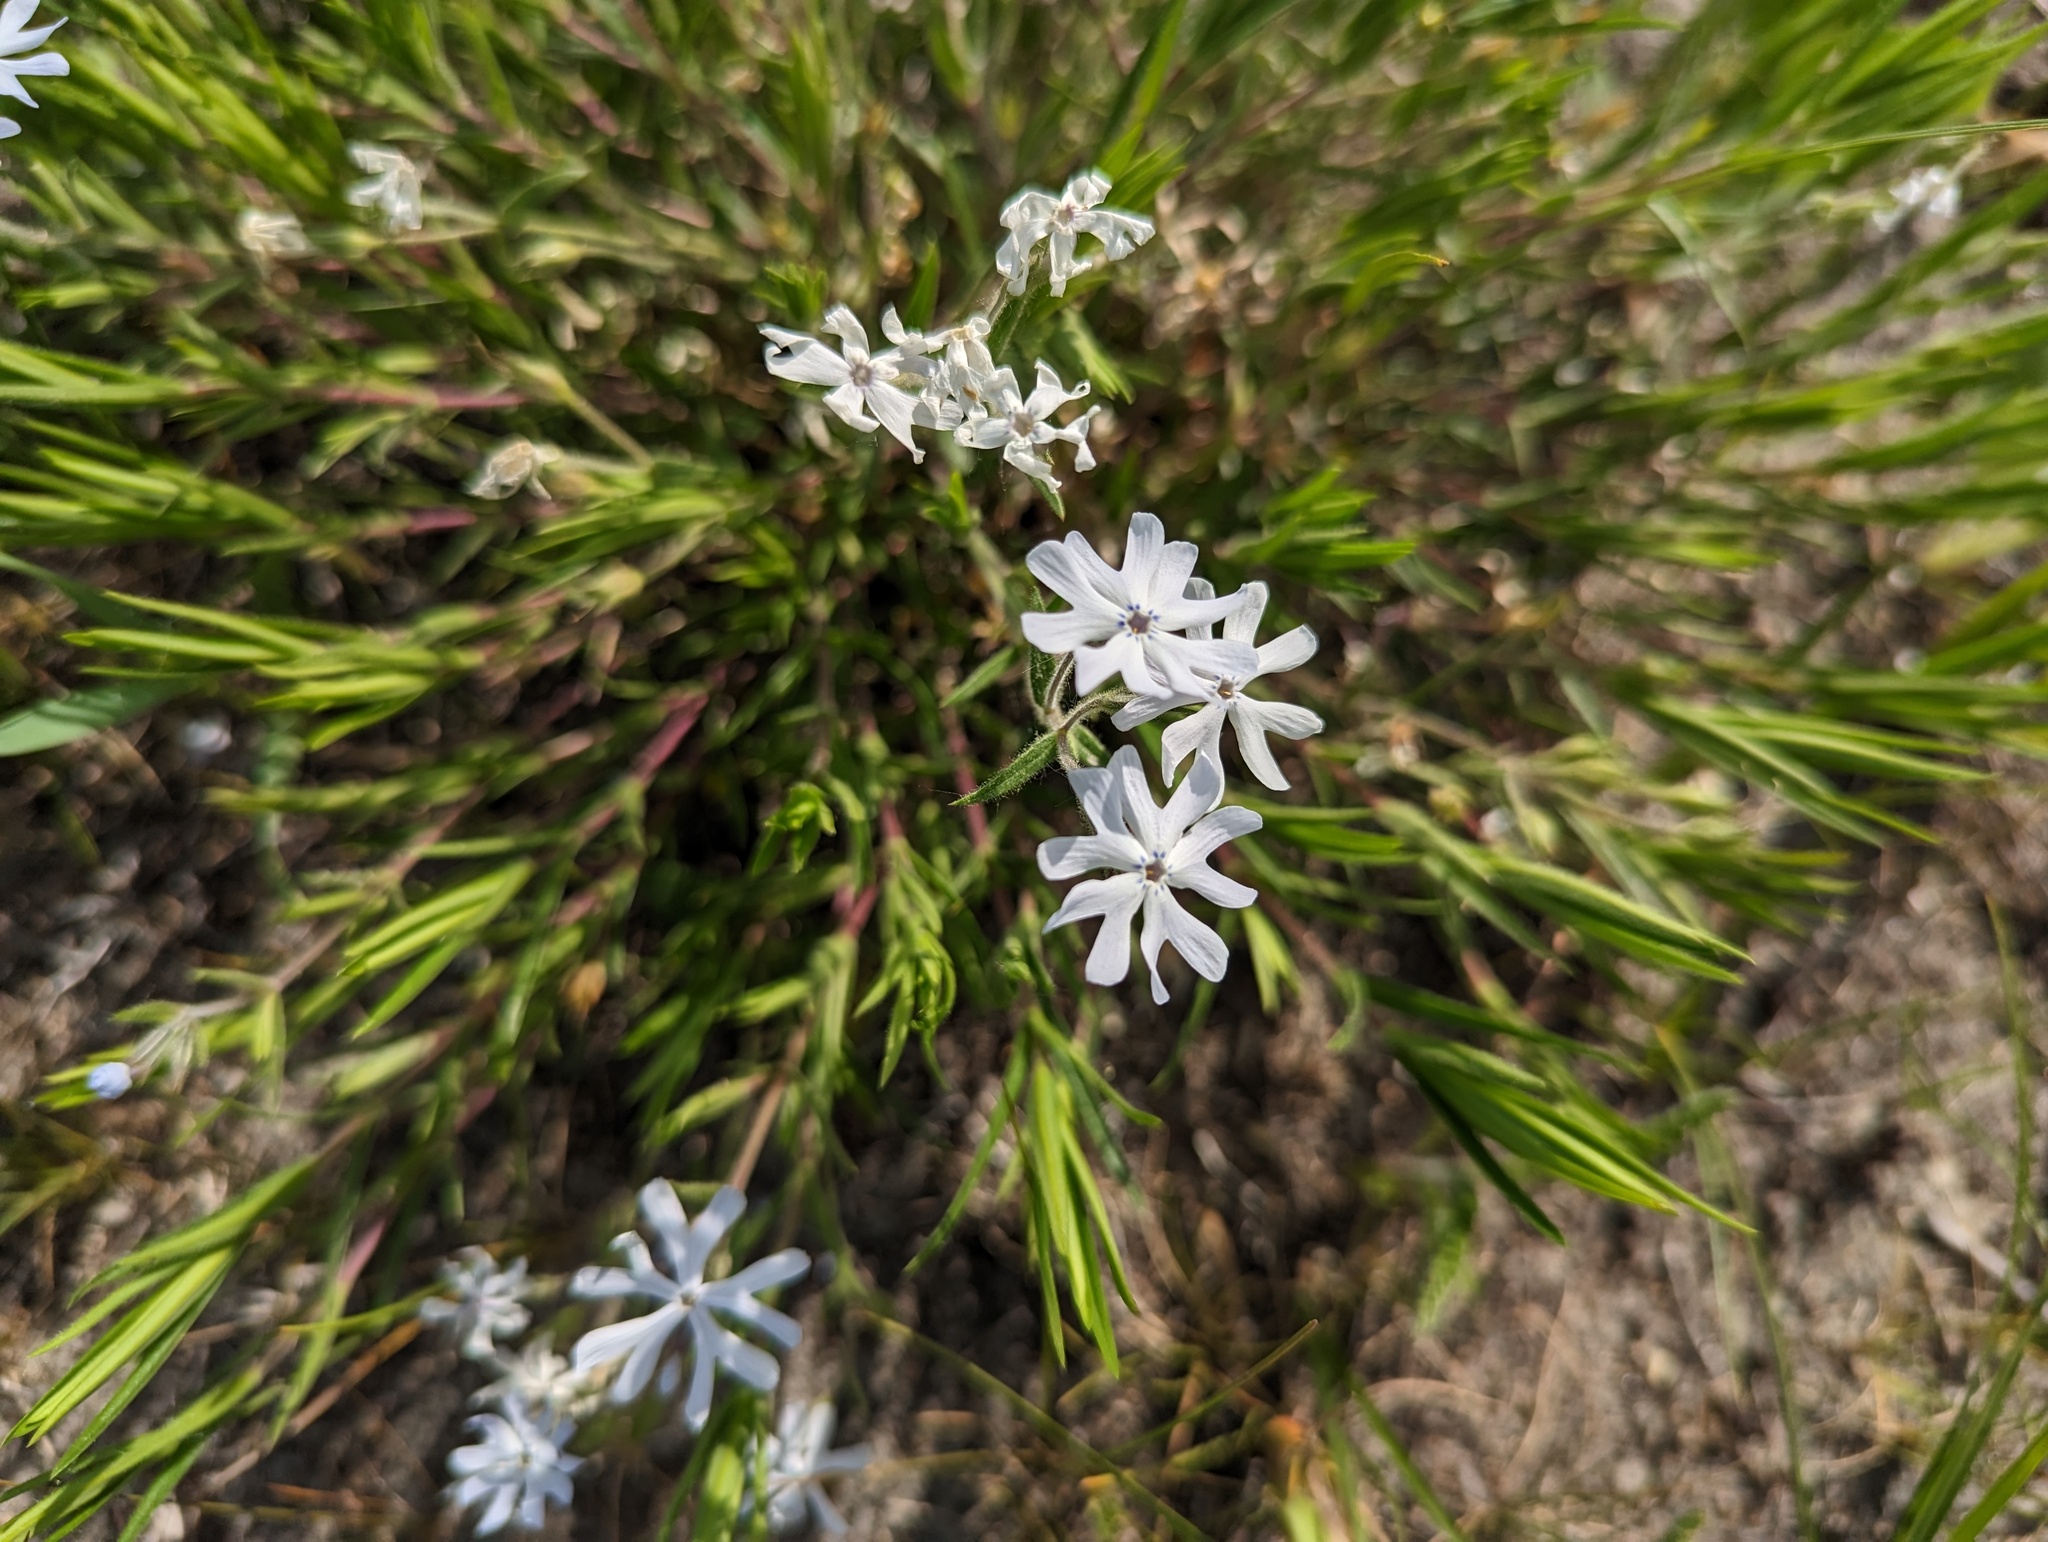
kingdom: Plantae
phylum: Tracheophyta
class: Magnoliopsida
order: Ericales
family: Polemoniaceae
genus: Phlox
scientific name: Phlox bifida
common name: Sand phlox
